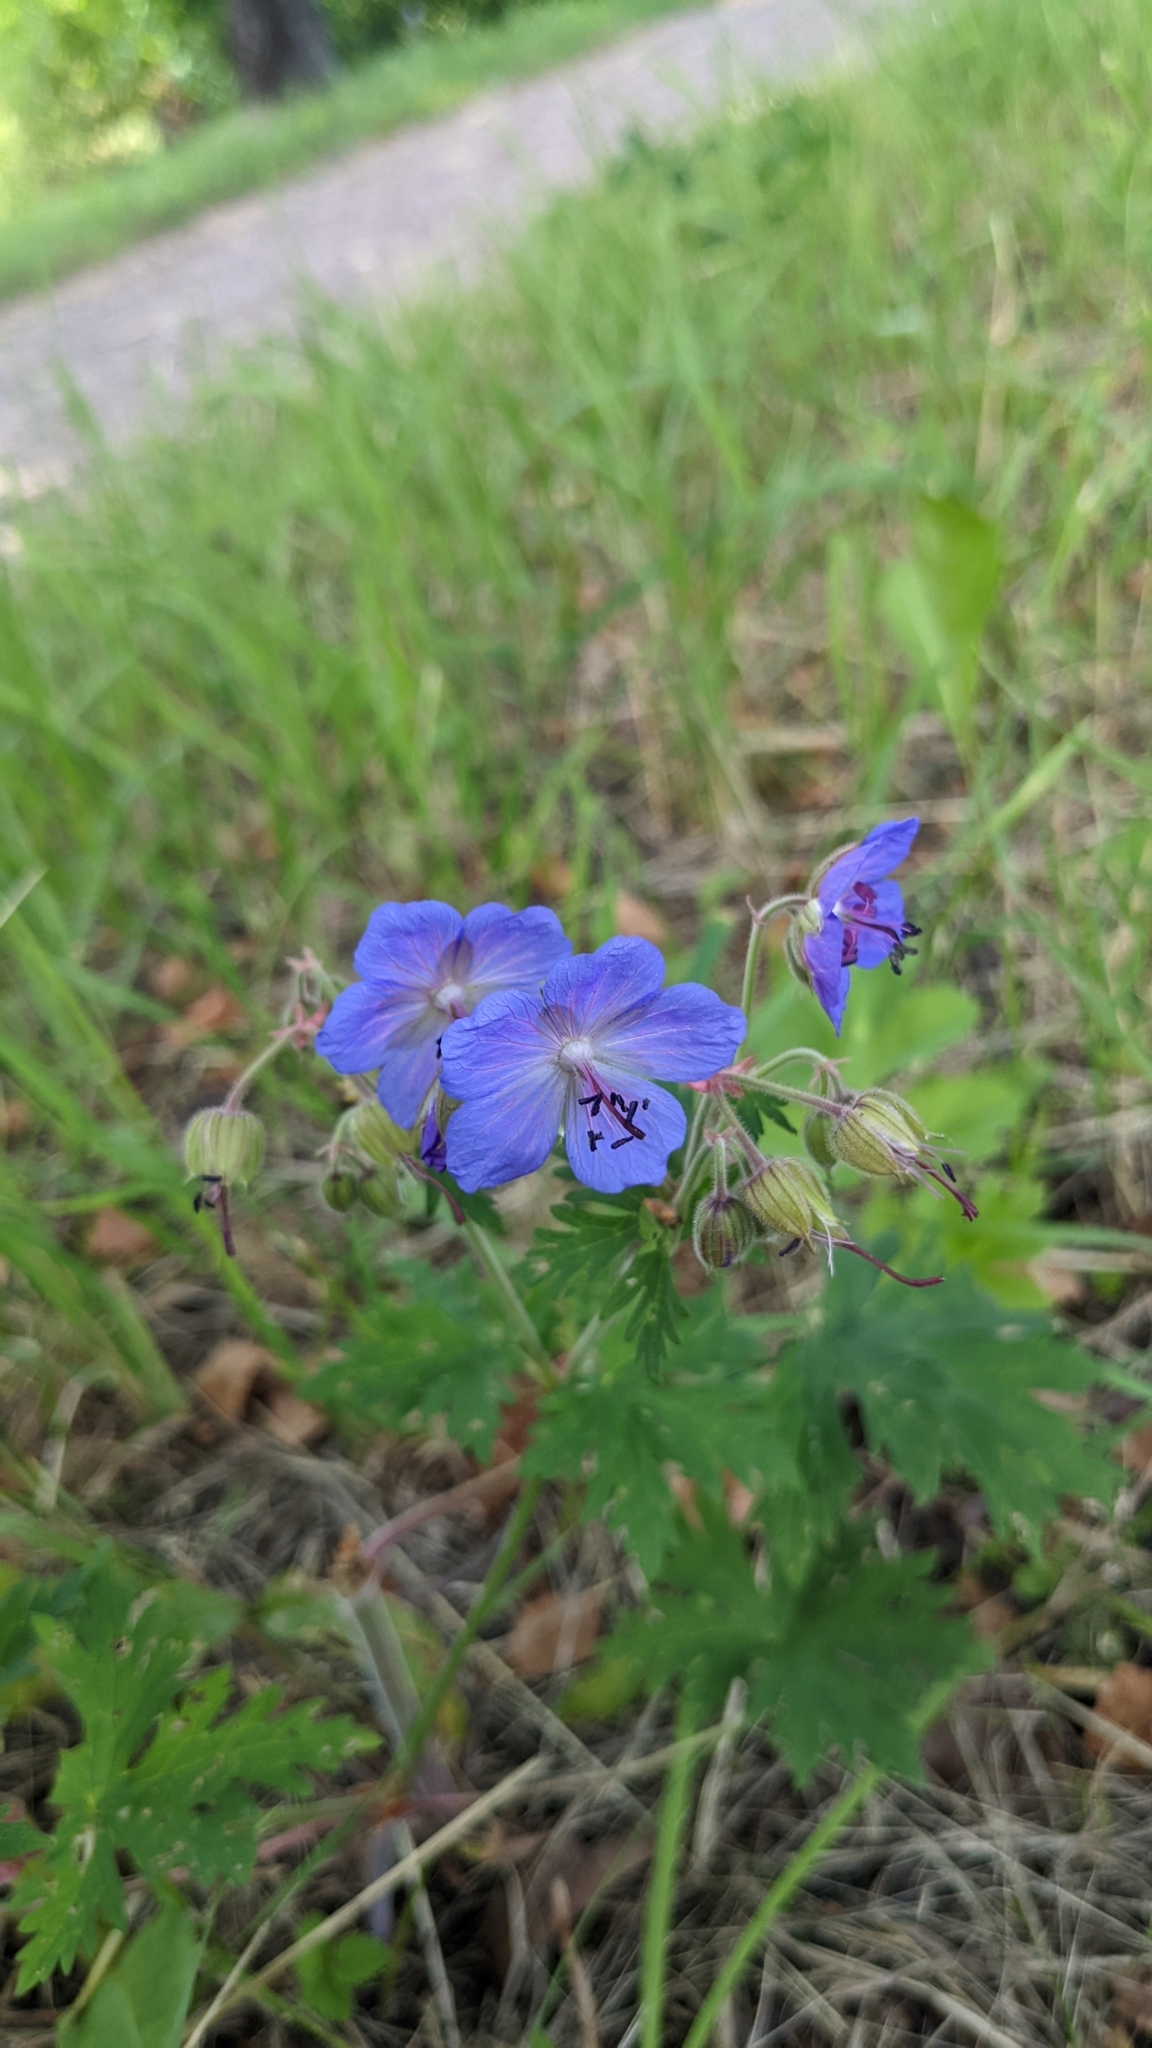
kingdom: Plantae
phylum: Tracheophyta
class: Magnoliopsida
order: Geraniales
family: Geraniaceae
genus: Geranium
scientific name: Geranium pratense
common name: Meadow crane's-bill
